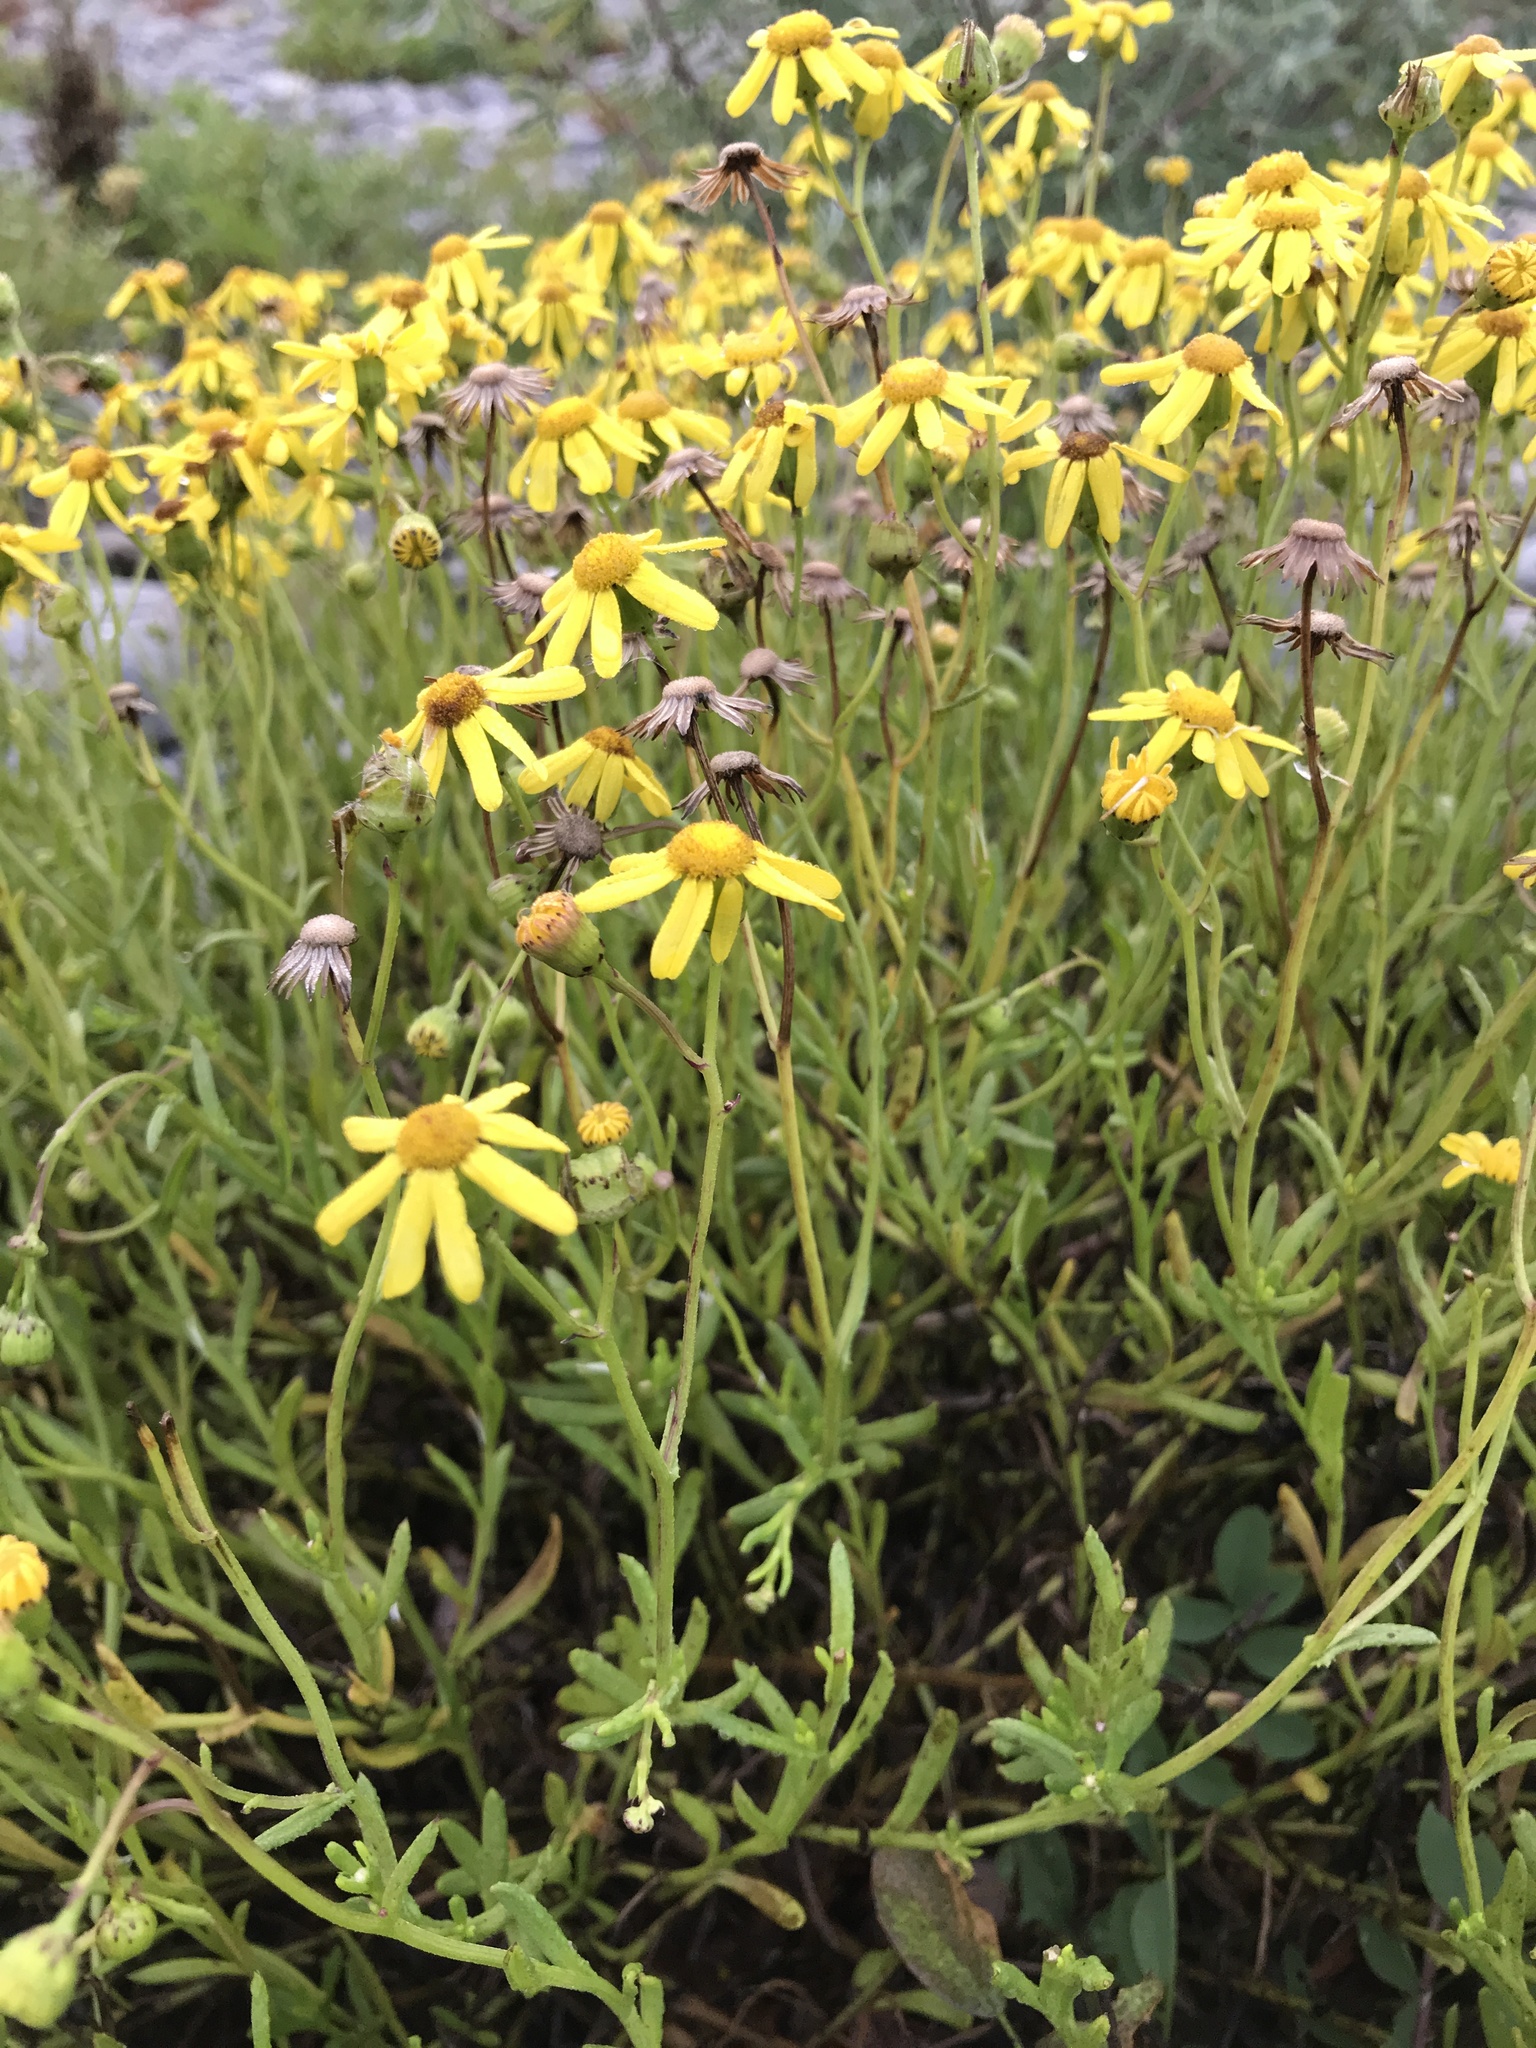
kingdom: Plantae
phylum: Tracheophyta
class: Magnoliopsida
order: Asterales
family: Asteraceae
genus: Senecio
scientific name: Senecio skirrhodon
